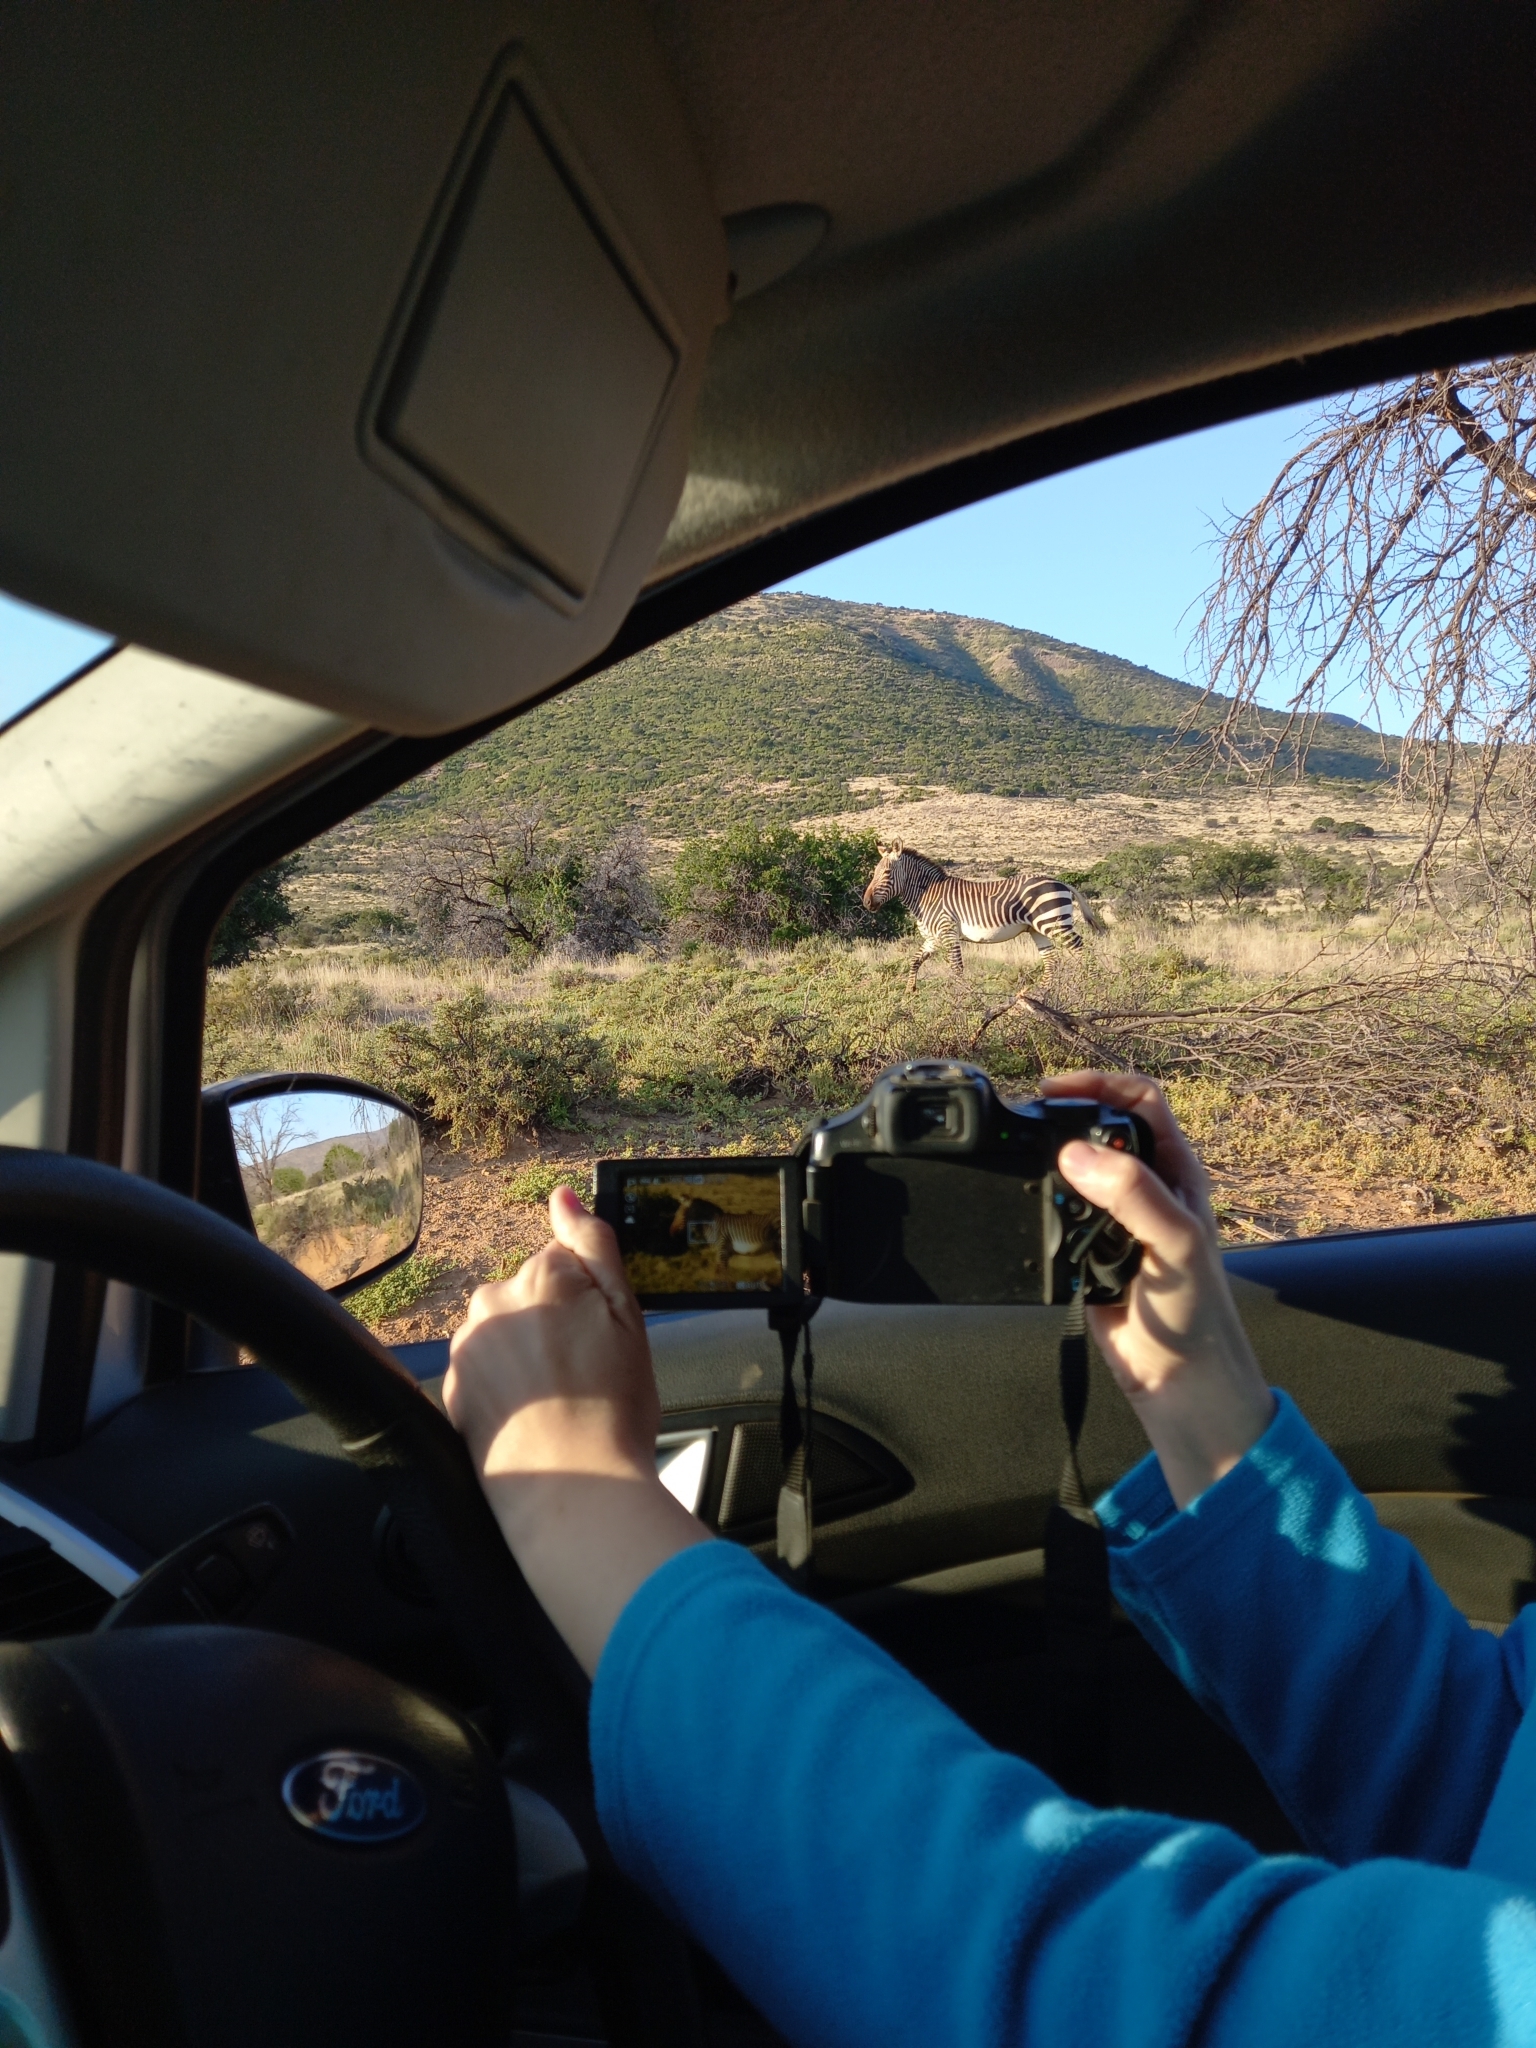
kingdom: Animalia
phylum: Chordata
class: Mammalia
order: Perissodactyla
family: Equidae
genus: Equus
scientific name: Equus zebra
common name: Mountain zebra
